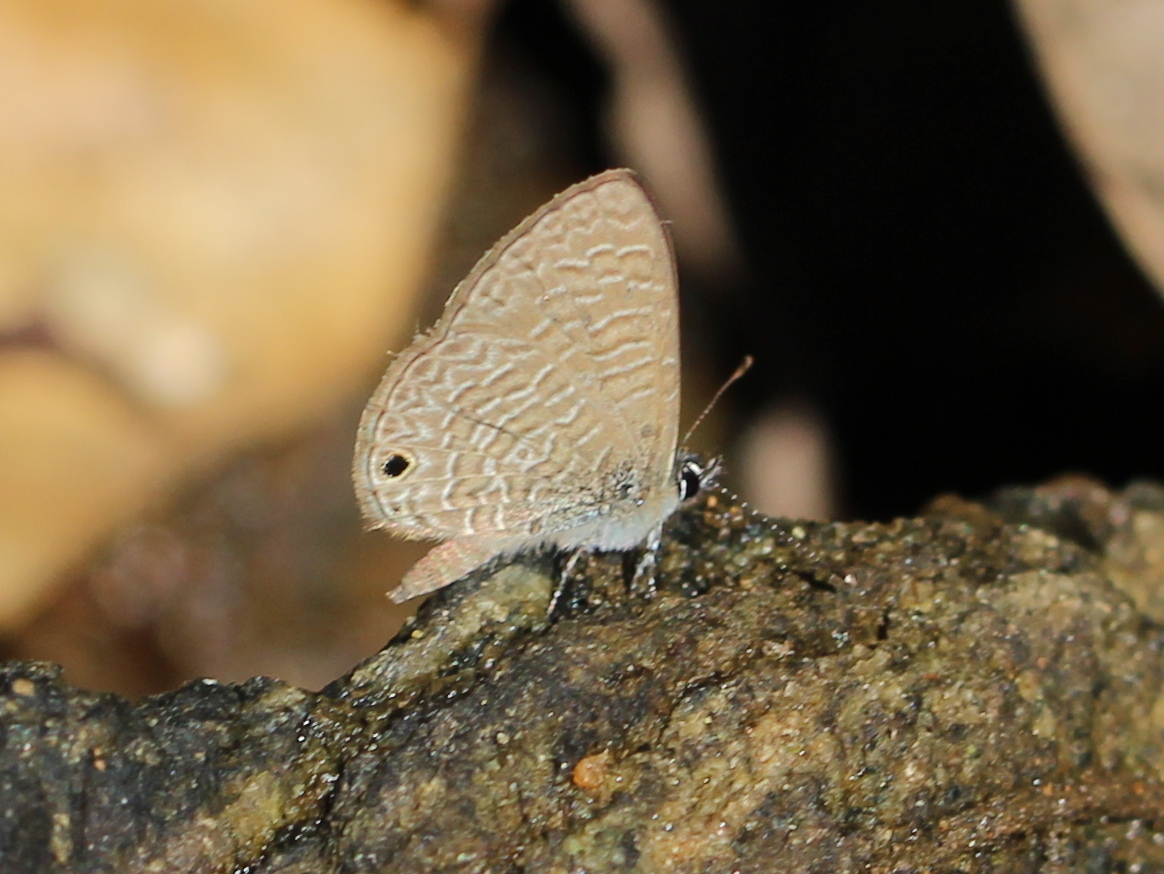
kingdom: Animalia
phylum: Arthropoda
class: Insecta
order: Lepidoptera
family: Lycaenidae
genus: Prosotas
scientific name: Prosotas dubiosa
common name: Tailless lineblue
